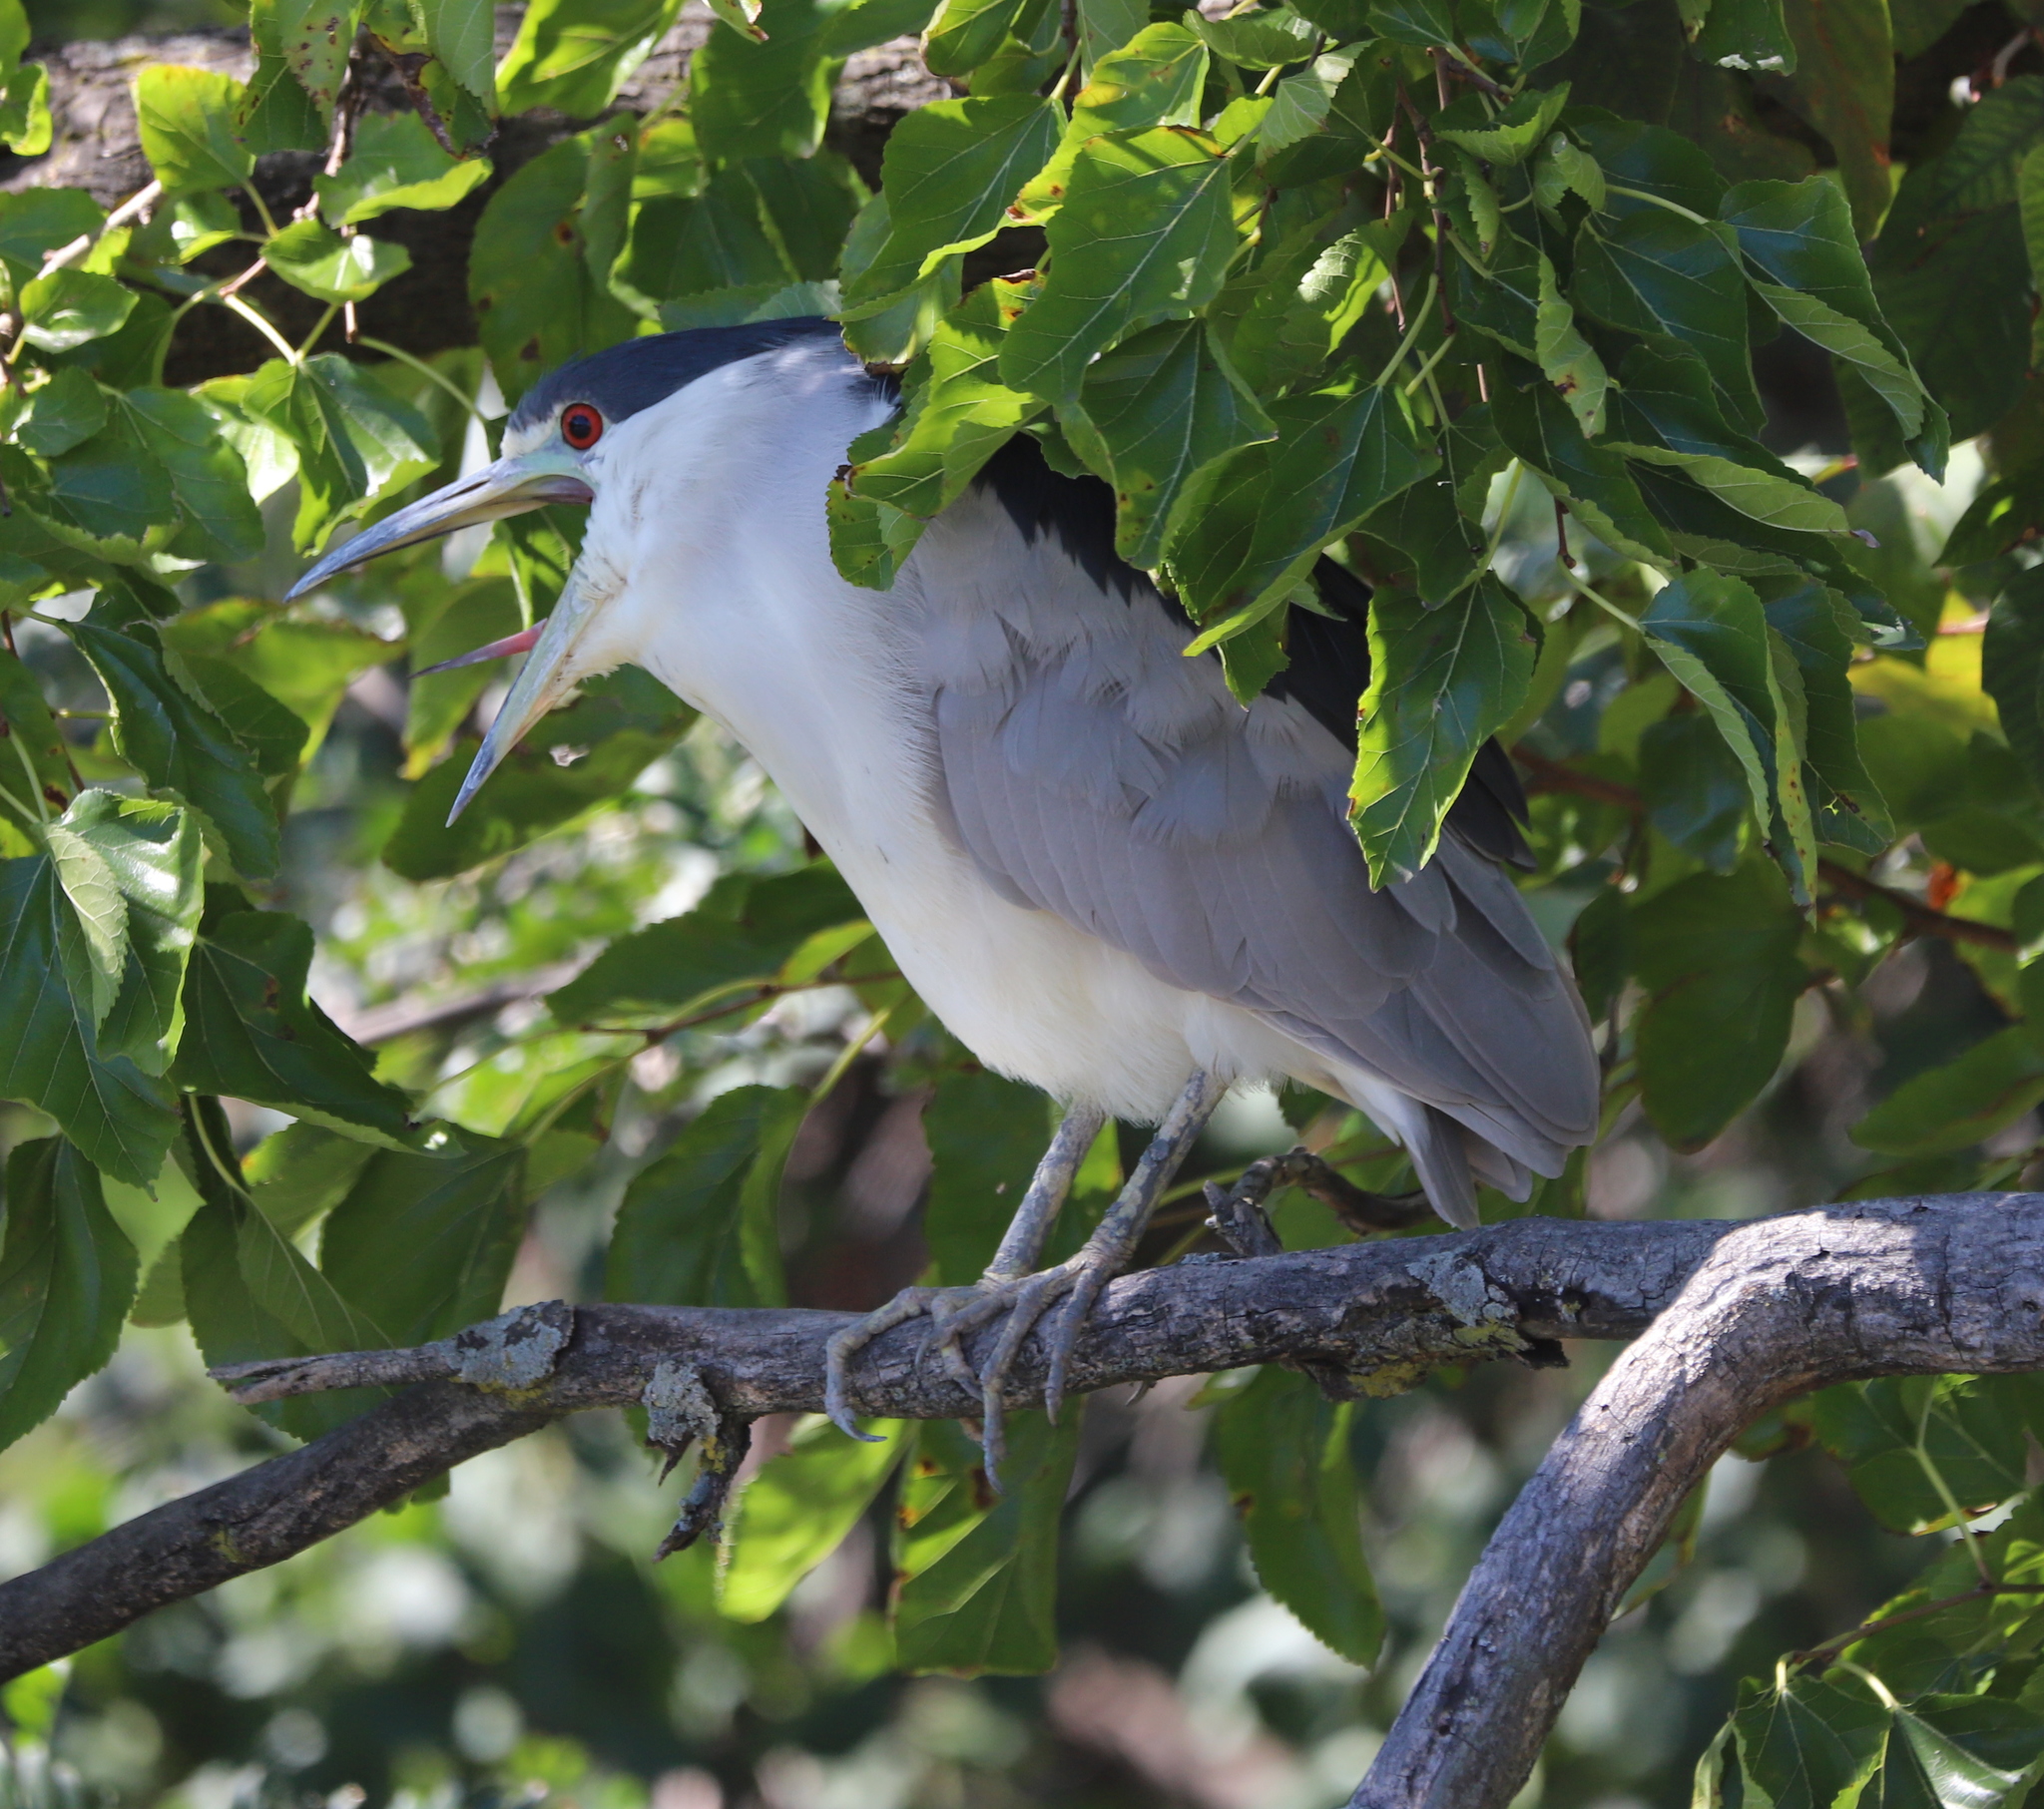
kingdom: Animalia
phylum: Chordata
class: Aves
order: Pelecaniformes
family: Ardeidae
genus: Nycticorax
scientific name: Nycticorax nycticorax
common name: Black-crowned night heron
